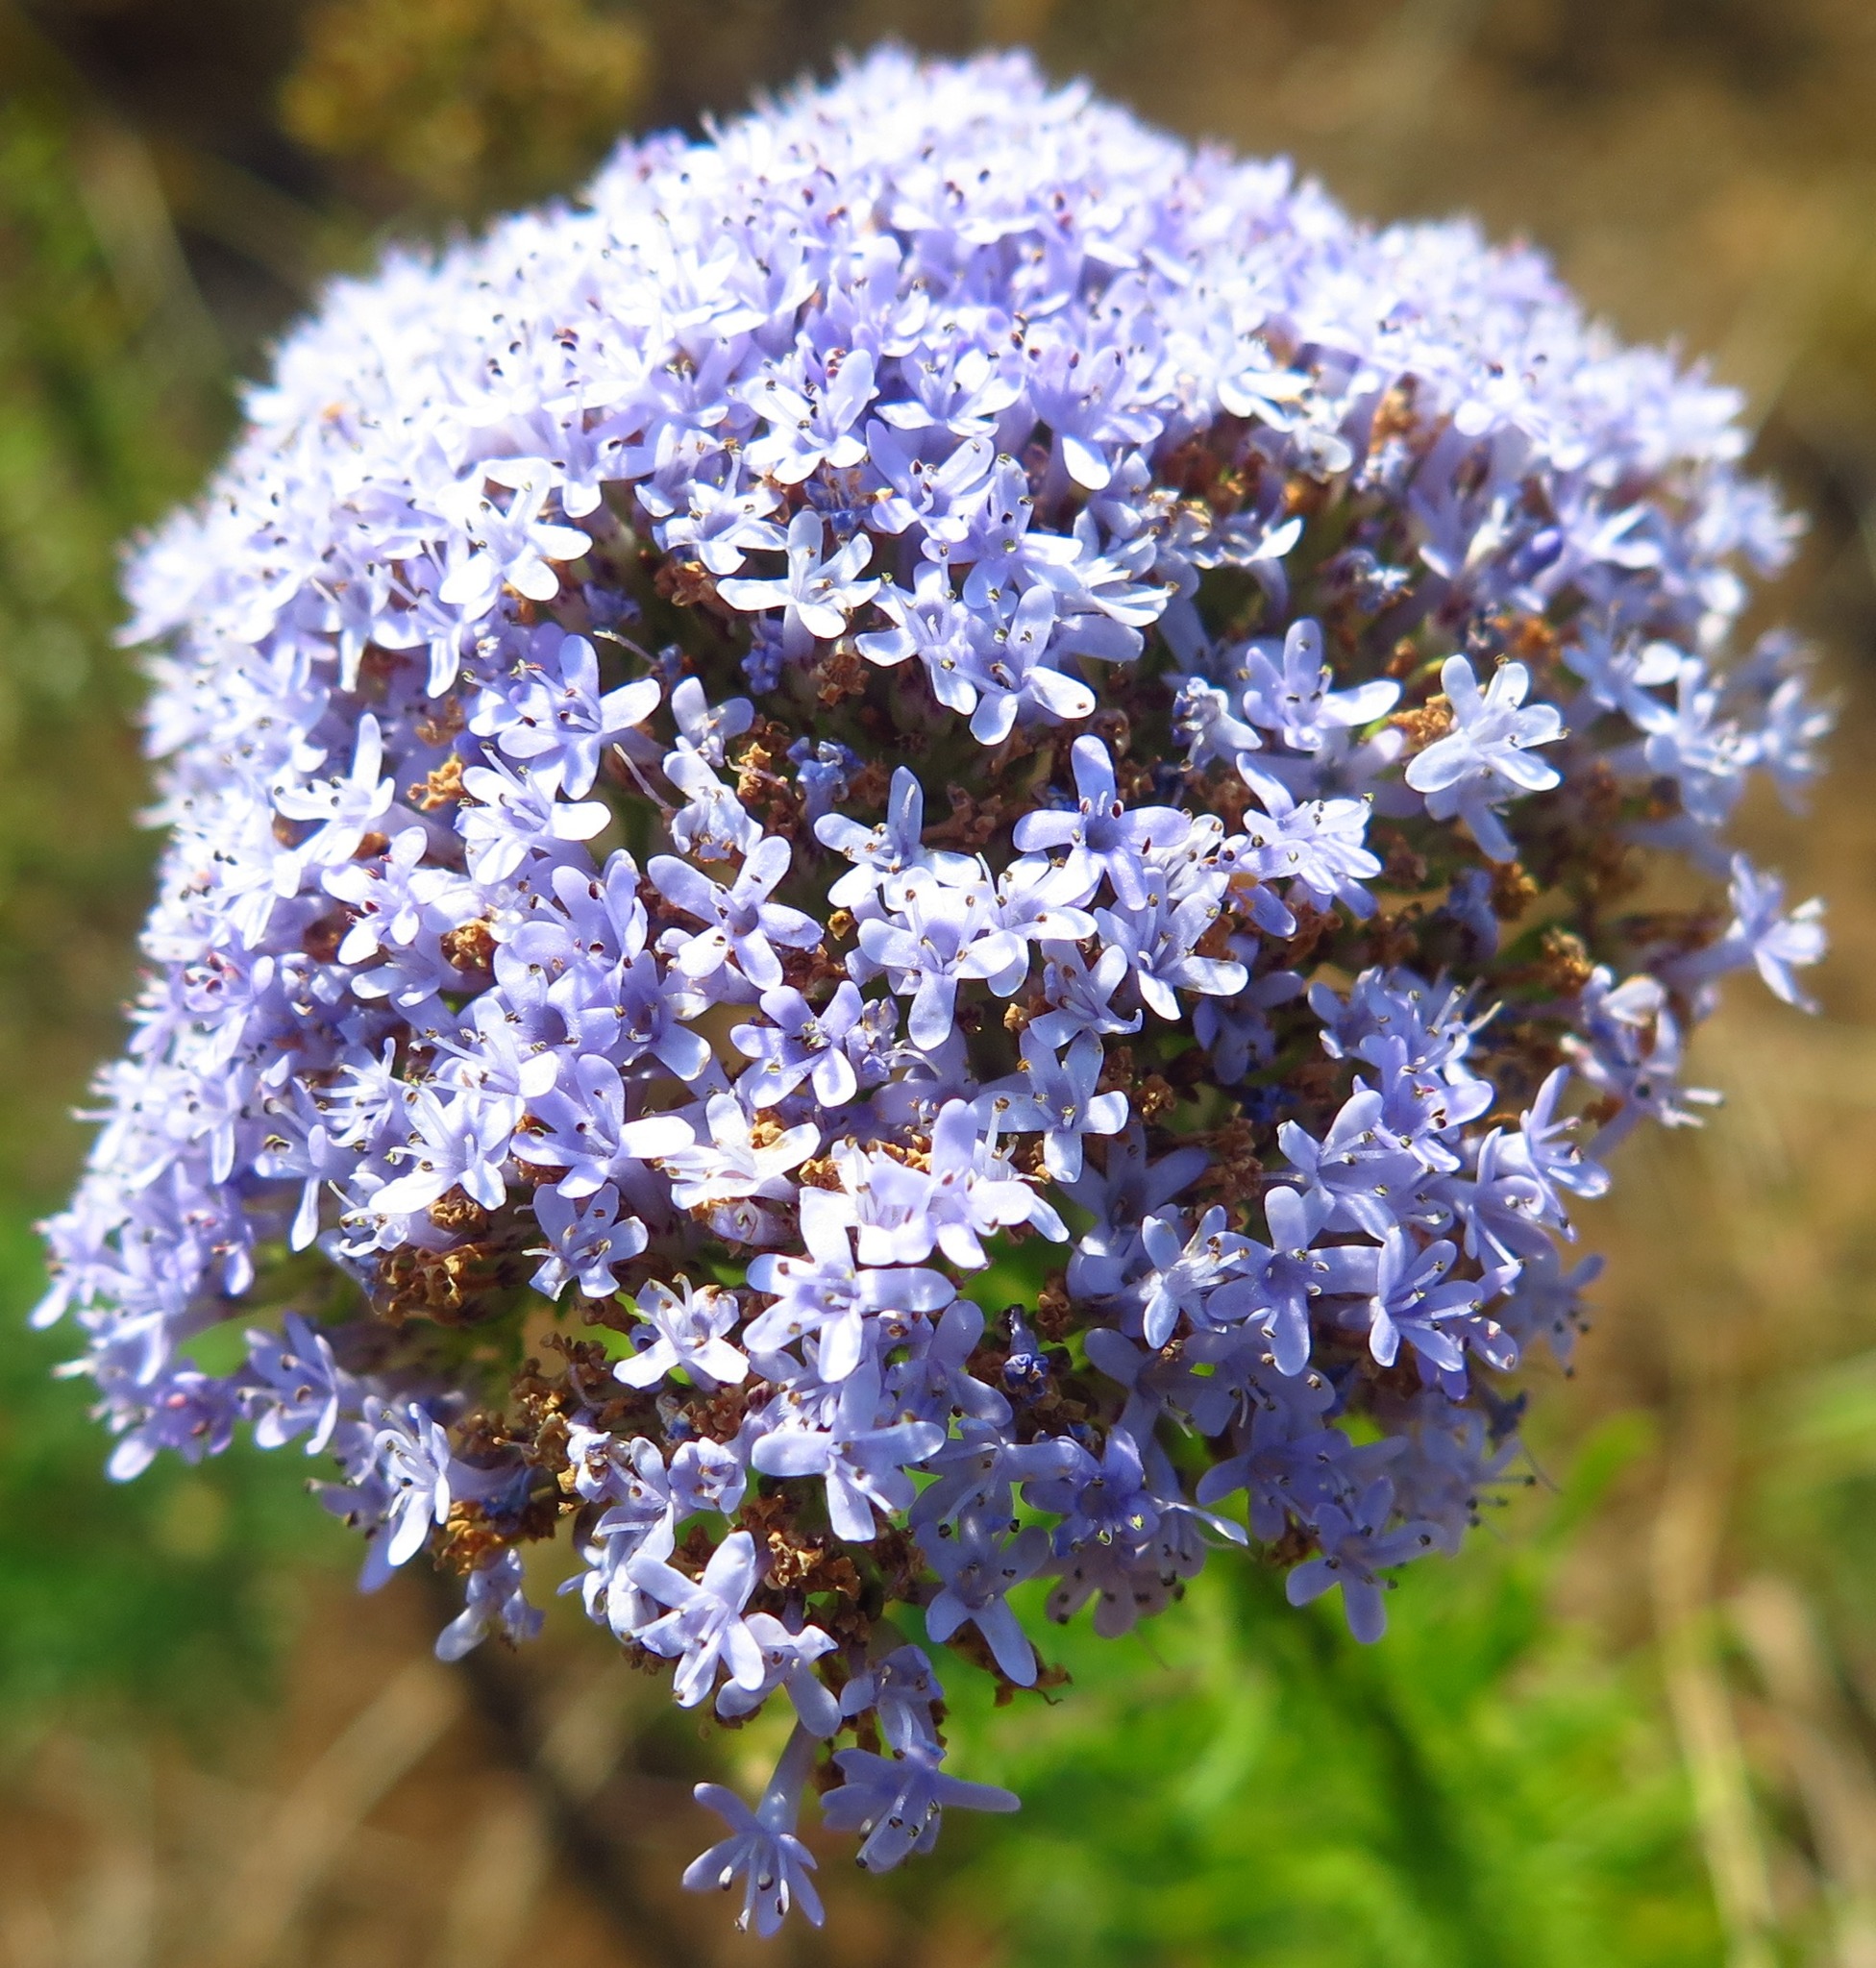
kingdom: Plantae
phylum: Tracheophyta
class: Magnoliopsida
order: Lamiales
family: Scrophulariaceae
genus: Tetraselago
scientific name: Tetraselago natalensis
